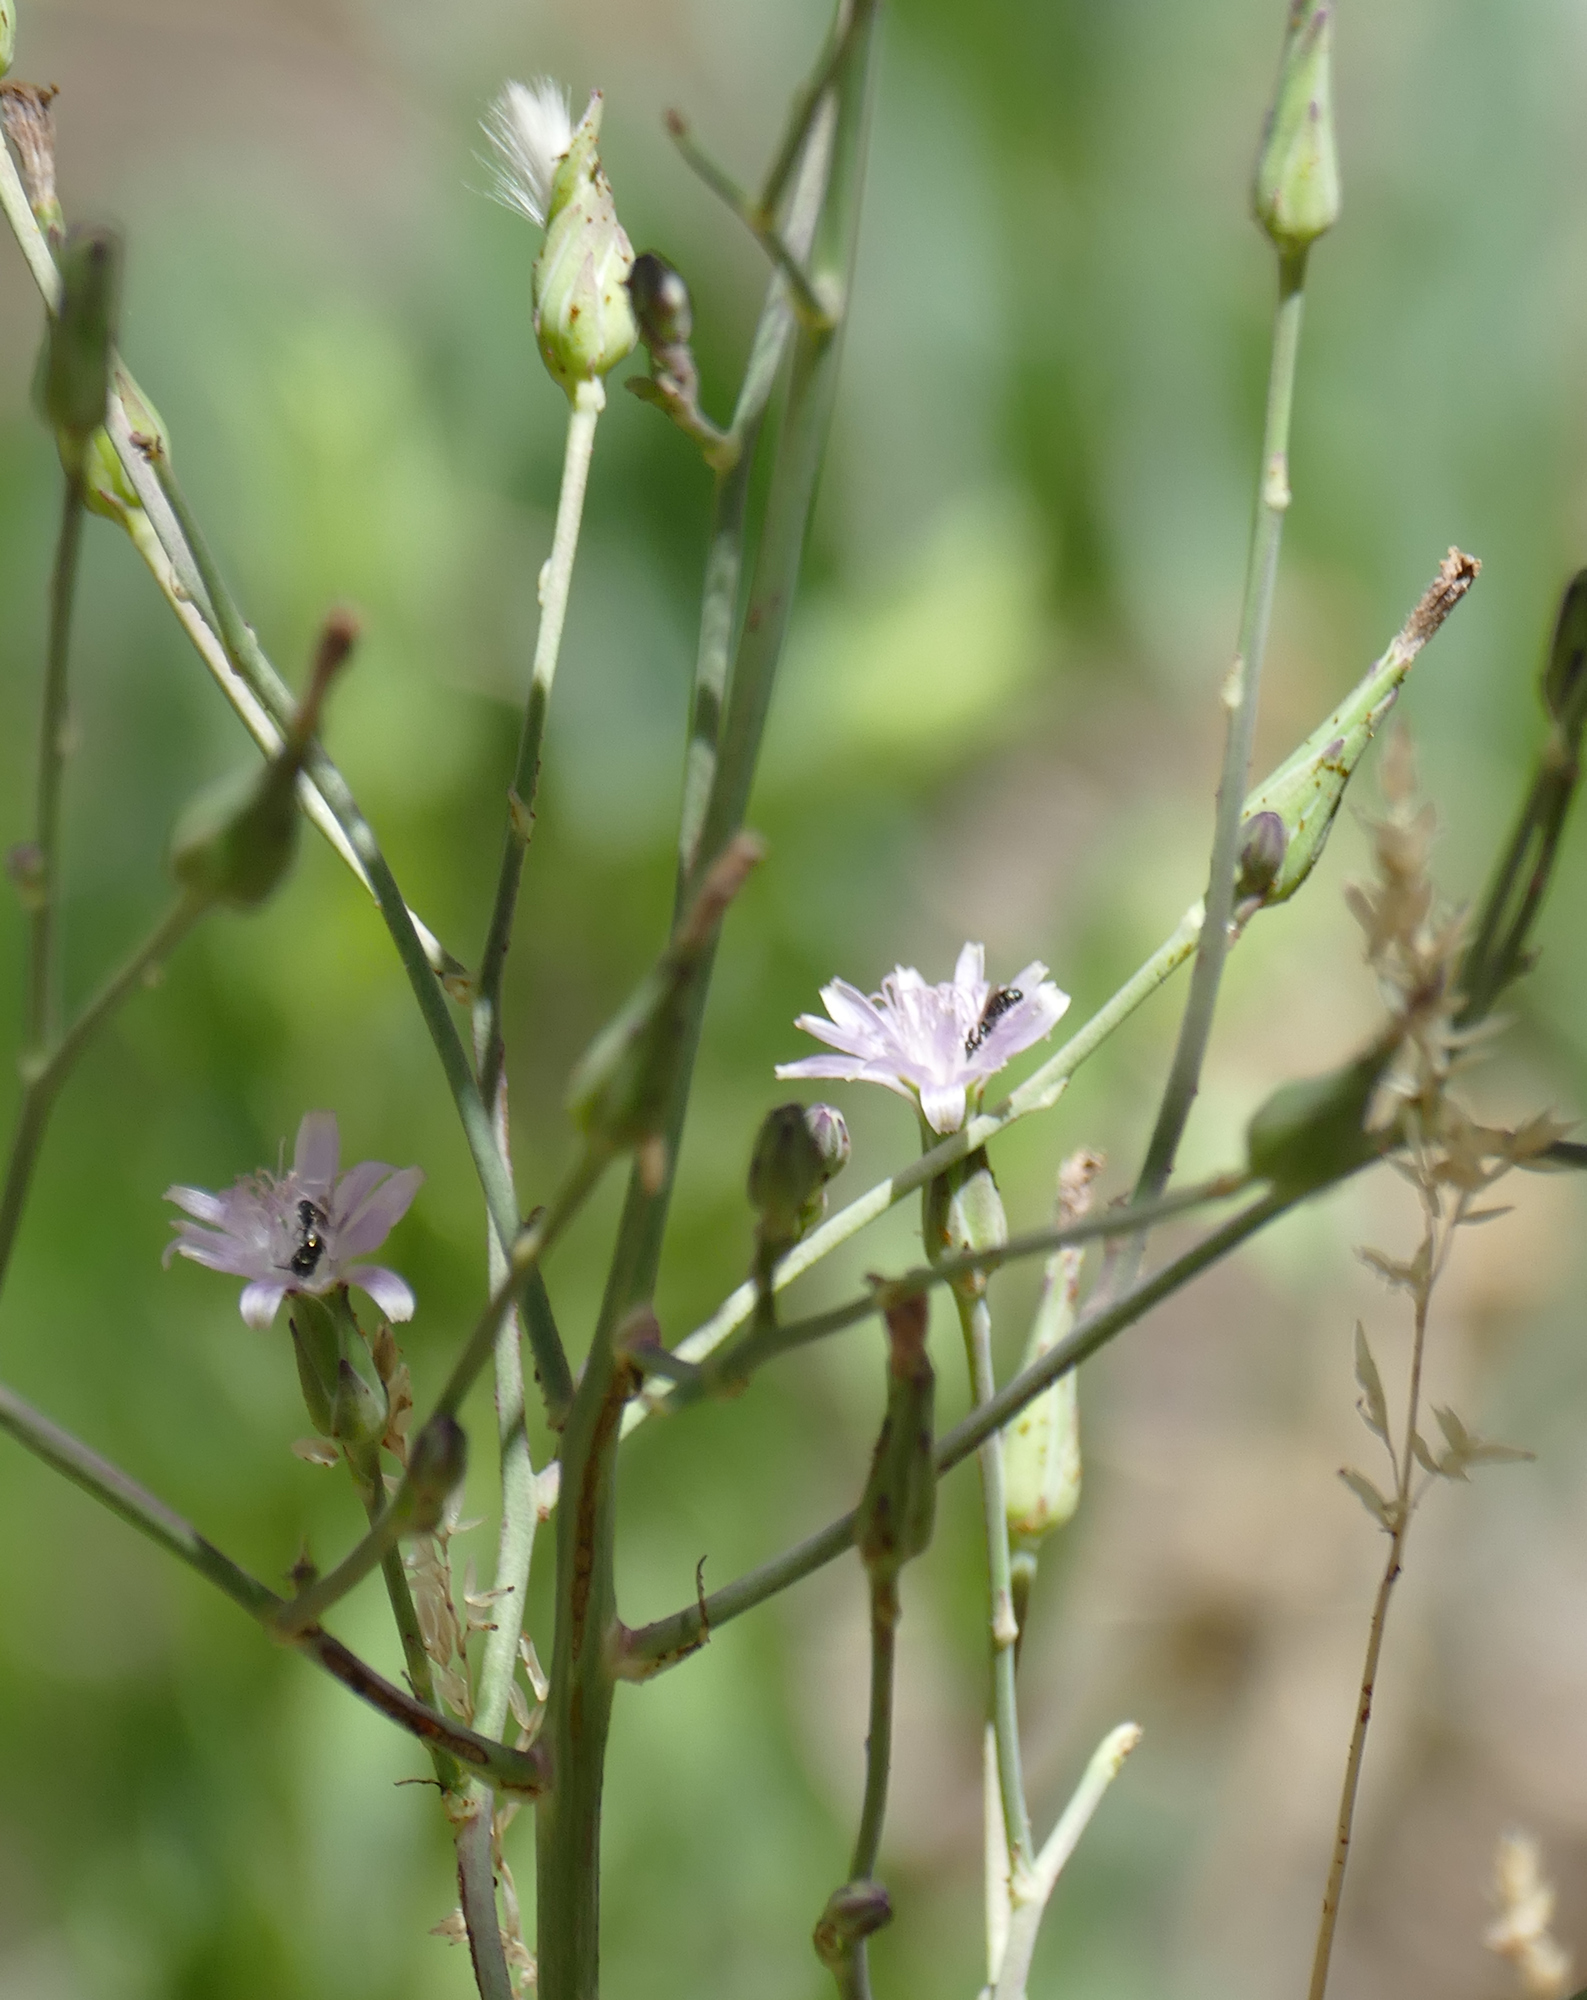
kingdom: Plantae
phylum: Tracheophyta
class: Magnoliopsida
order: Asterales
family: Asteraceae
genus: Lactuca
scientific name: Lactuca graminifolia
